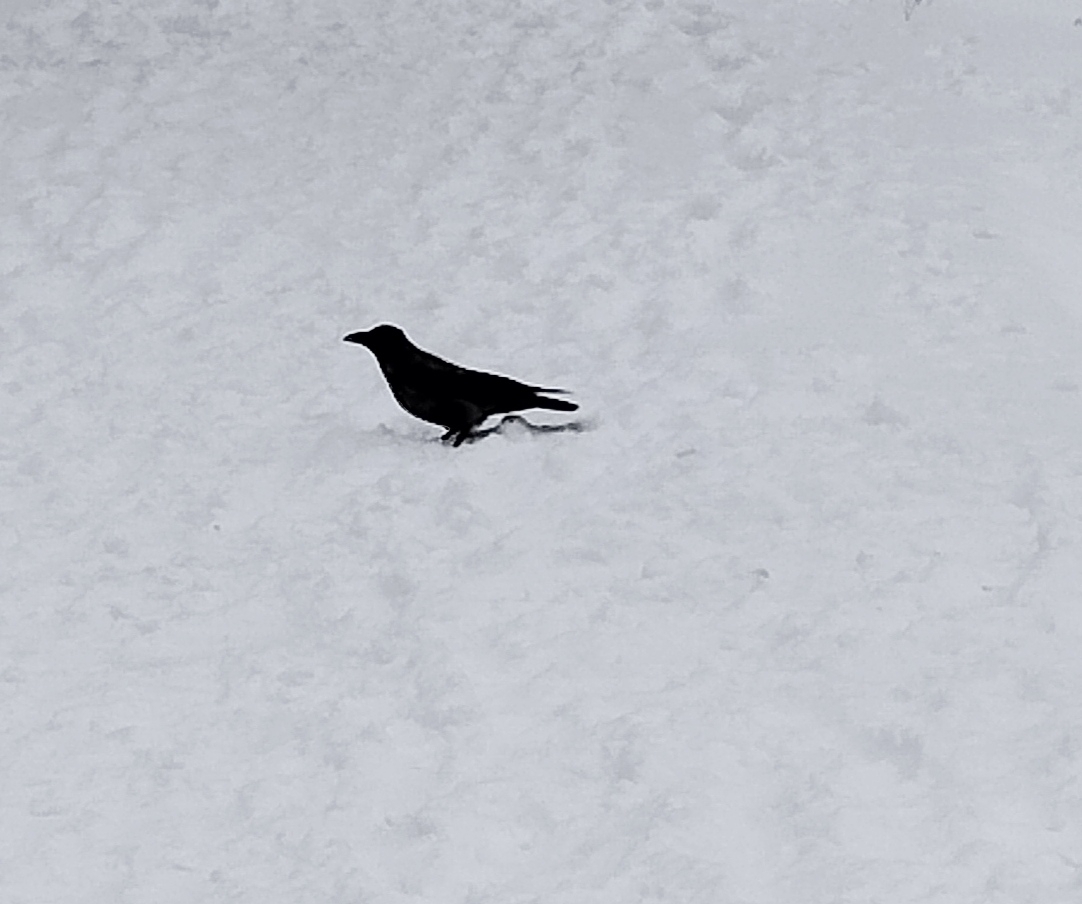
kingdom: Animalia
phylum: Chordata
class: Aves
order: Passeriformes
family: Corvidae
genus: Corvus
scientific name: Corvus cornix
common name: Hooded crow
